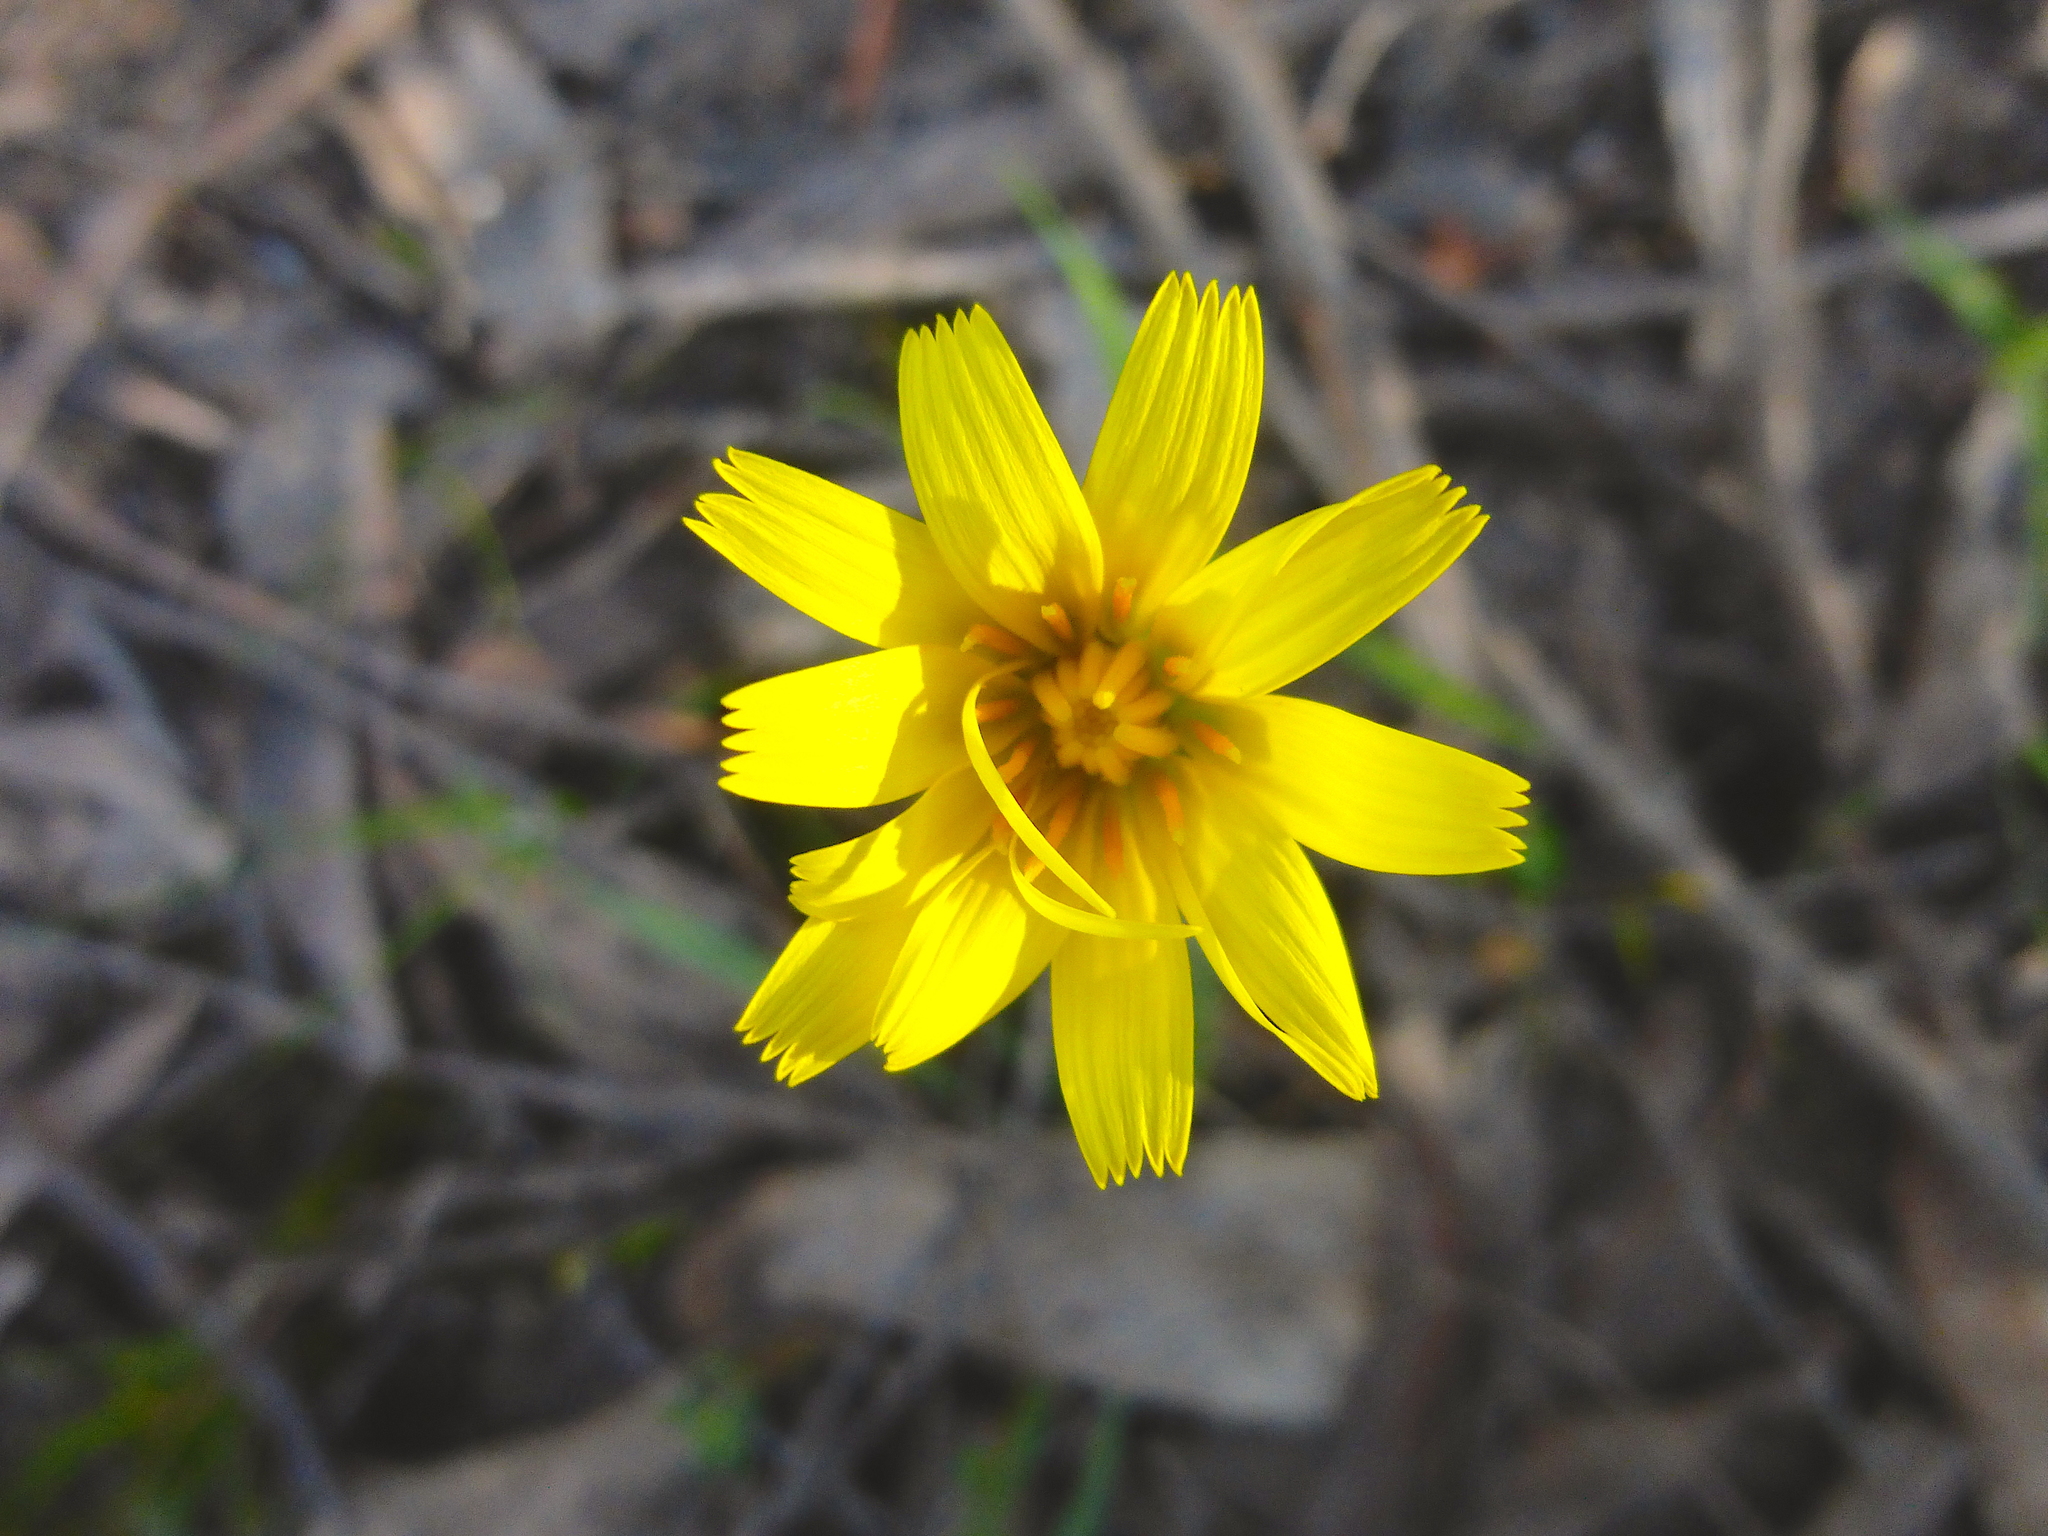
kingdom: Plantae
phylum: Tracheophyta
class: Magnoliopsida
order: Asterales
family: Asteraceae
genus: Microseris
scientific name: Microseris lanceolata
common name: Yam daisy
